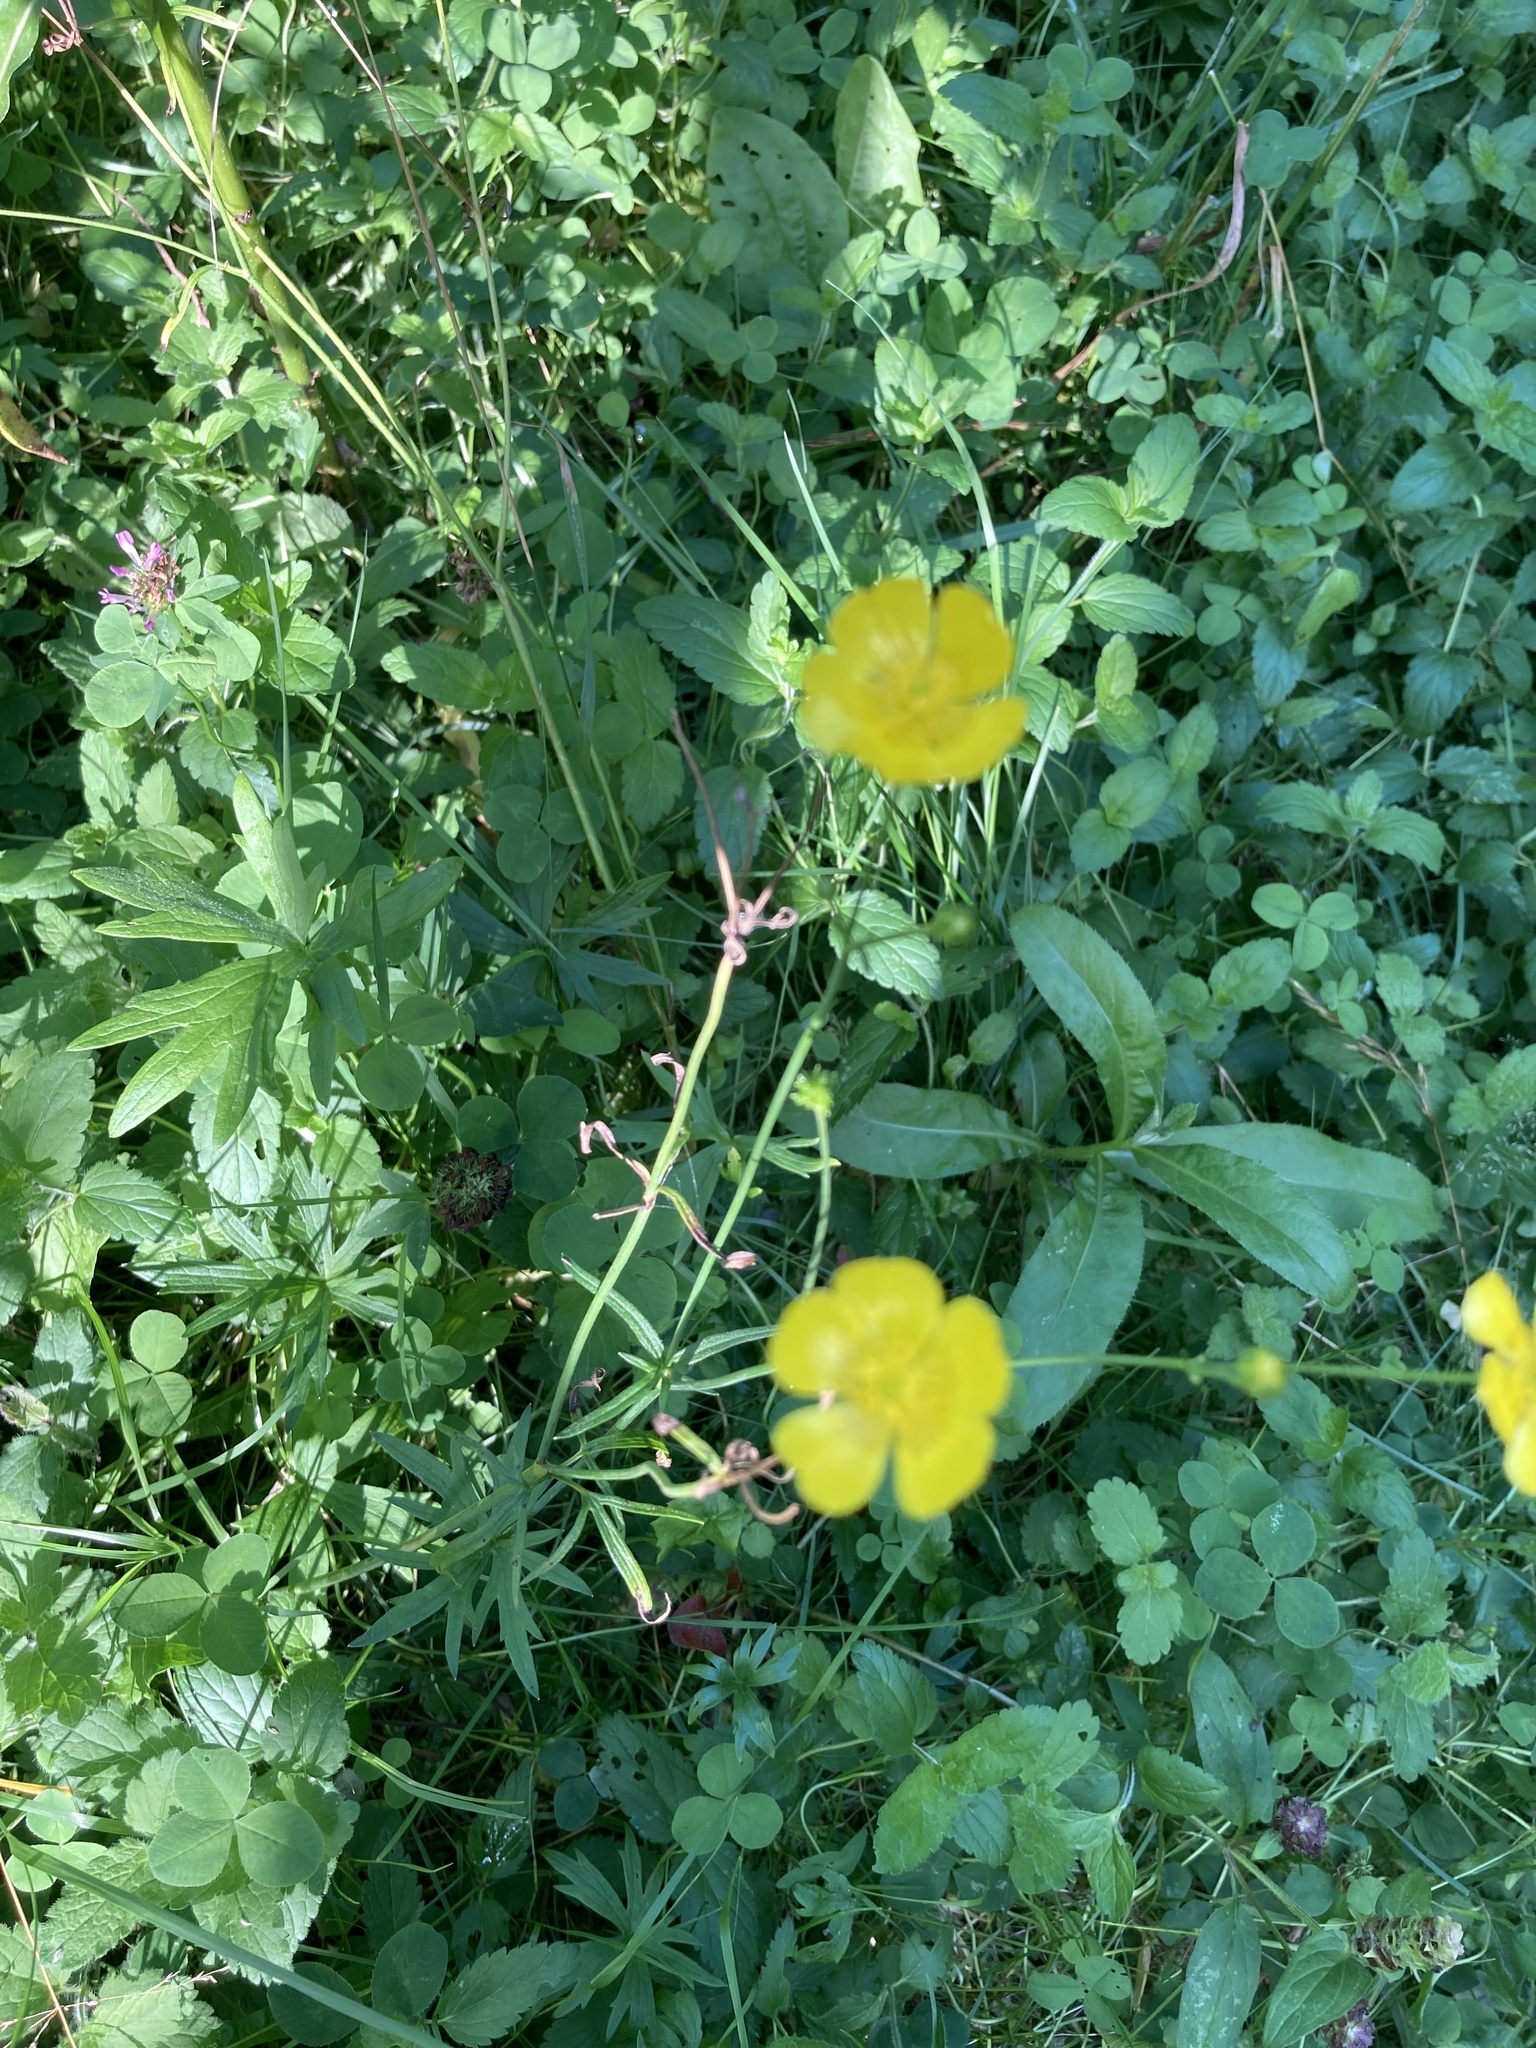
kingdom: Plantae
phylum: Tracheophyta
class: Magnoliopsida
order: Ranunculales
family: Ranunculaceae
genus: Ranunculus
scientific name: Ranunculus acris
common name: Meadow buttercup
